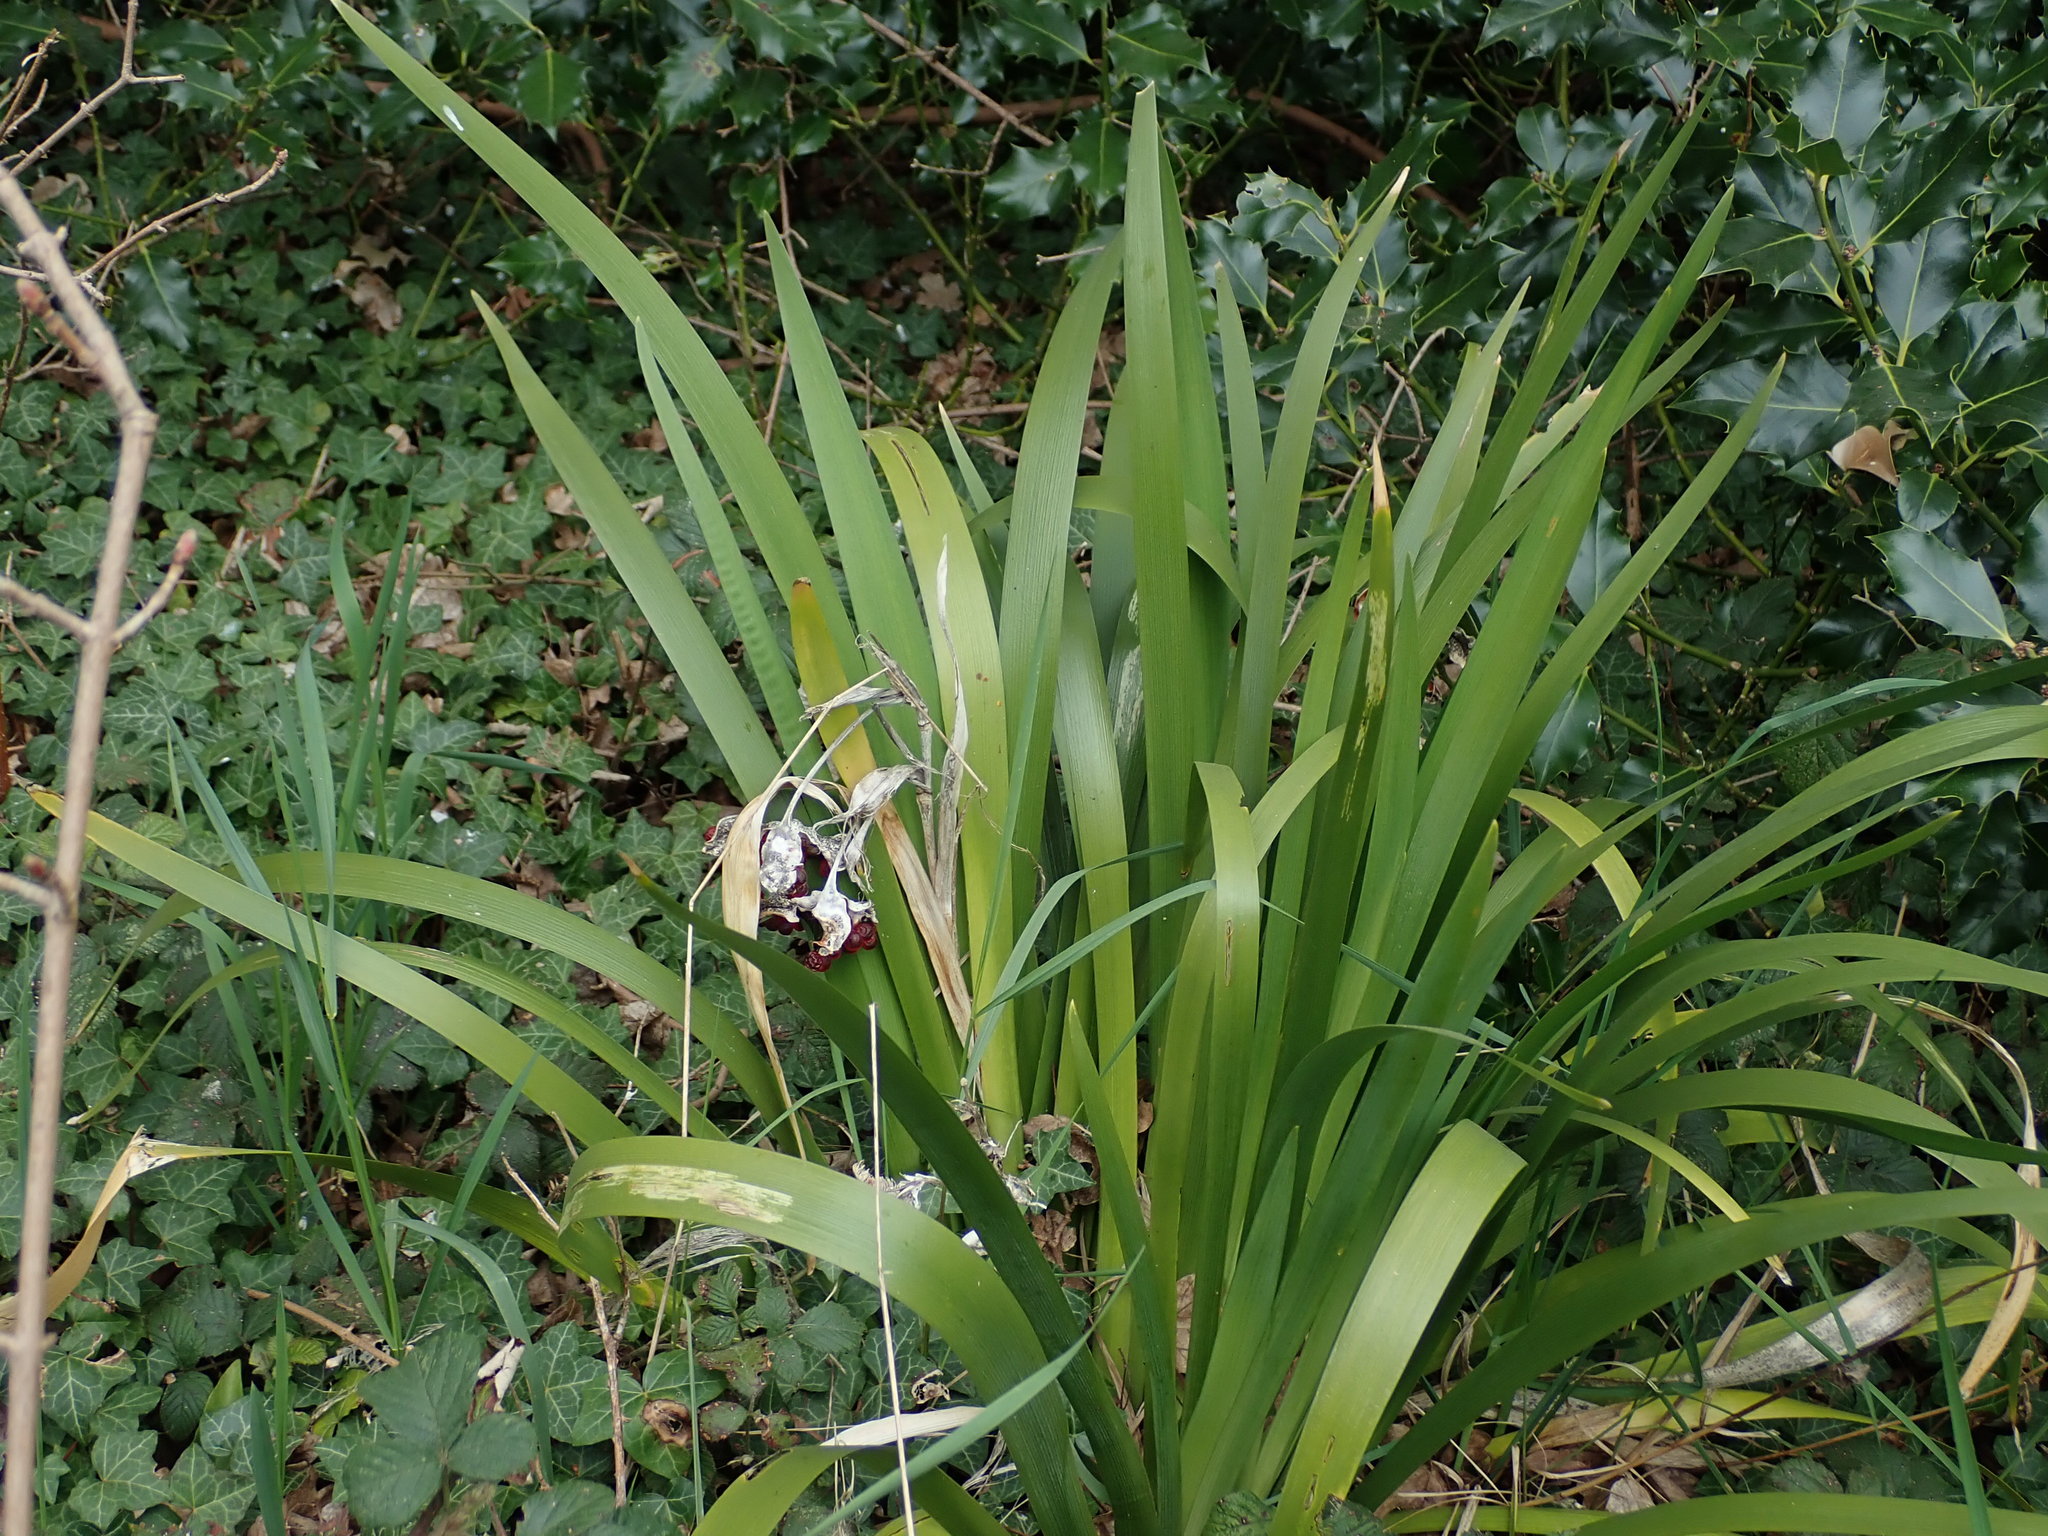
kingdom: Plantae
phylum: Tracheophyta
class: Liliopsida
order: Asparagales
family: Iridaceae
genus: Iris
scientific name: Iris foetidissima
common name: Stinking iris
